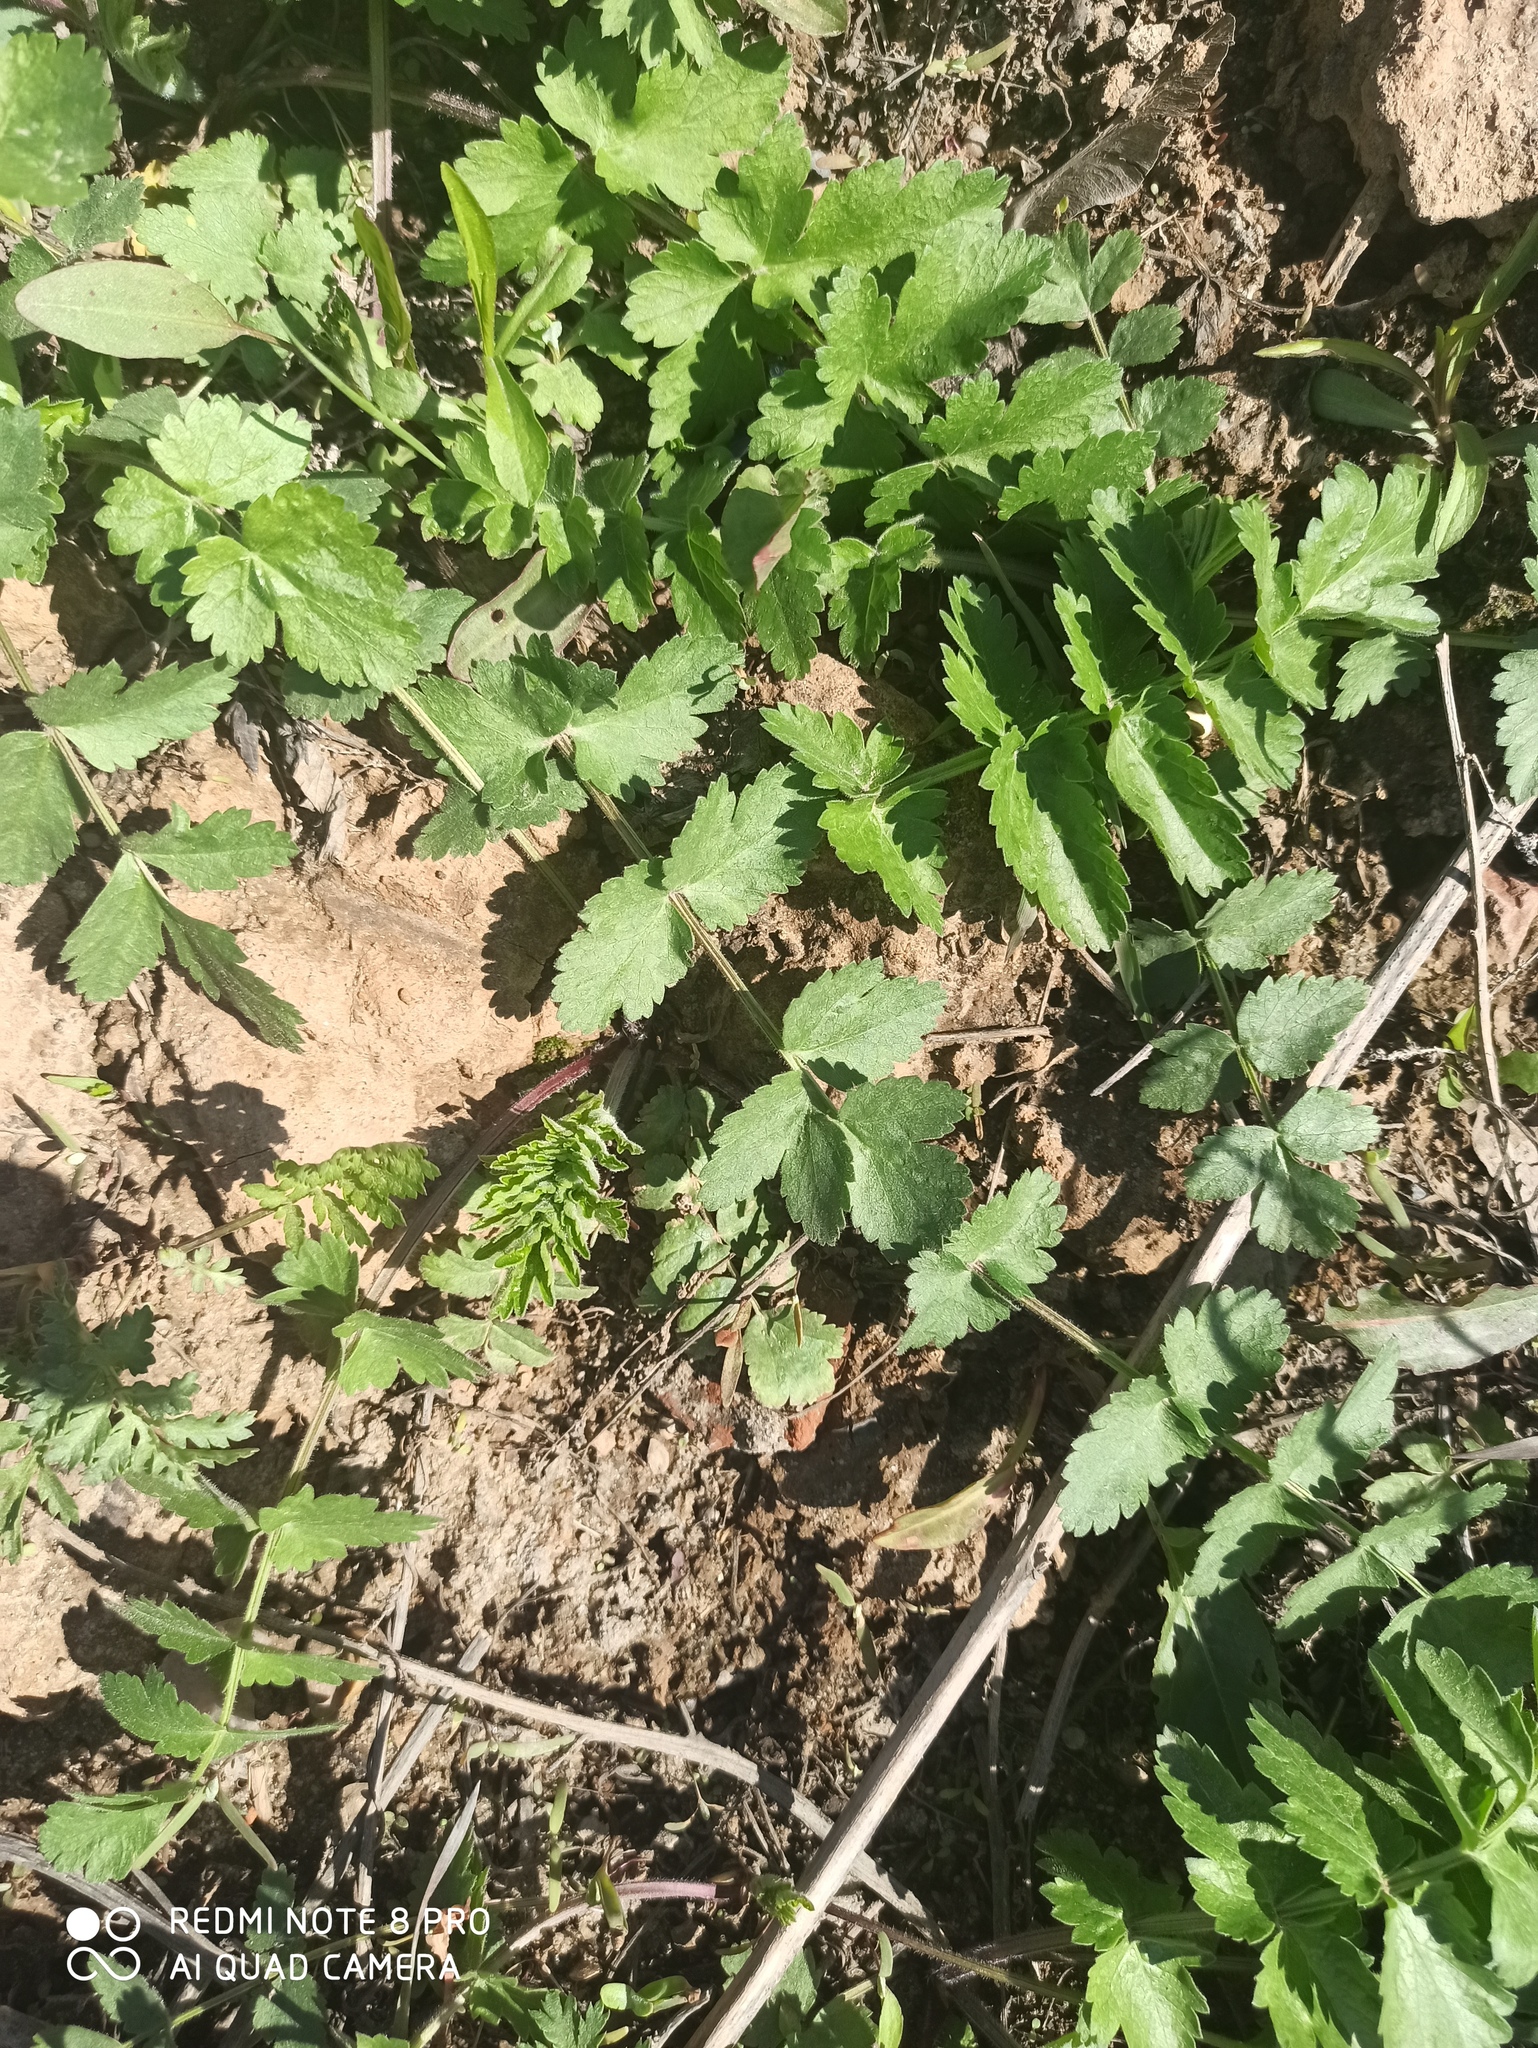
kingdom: Plantae
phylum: Tracheophyta
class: Magnoliopsida
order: Apiales
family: Apiaceae
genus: Pastinaca
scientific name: Pastinaca sativa
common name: Wild parsnip
